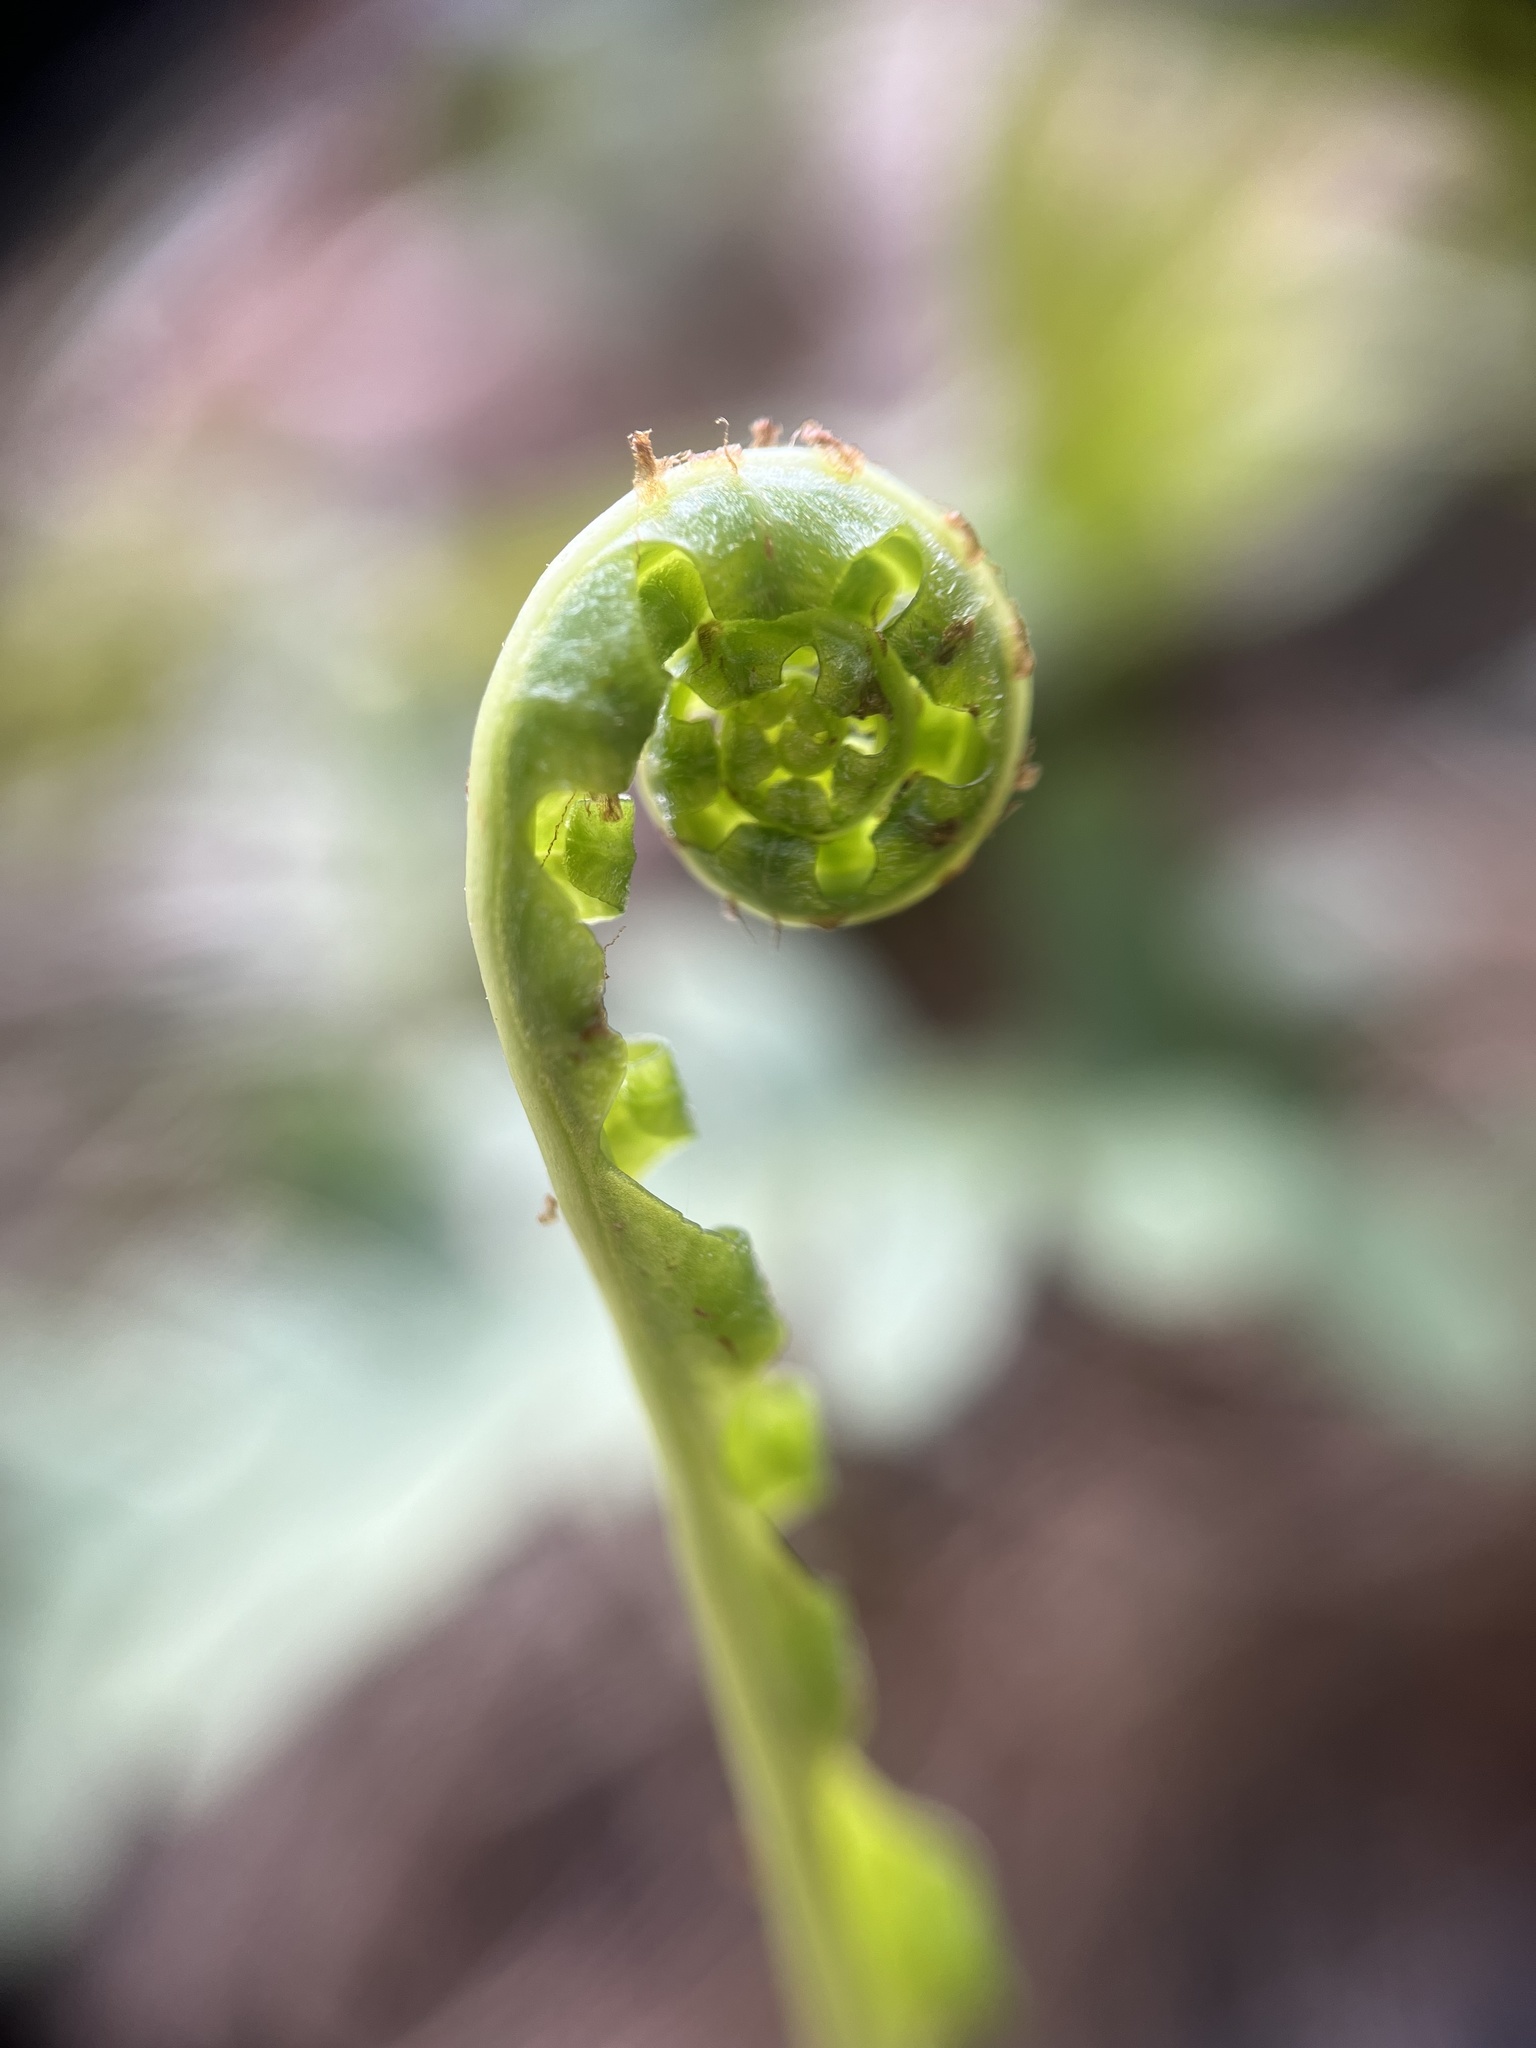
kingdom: Plantae
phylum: Tracheophyta
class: Polypodiopsida
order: Polypodiales
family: Polypodiaceae
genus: Polypodium
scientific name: Polypodium virginianum
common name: American wall fern
